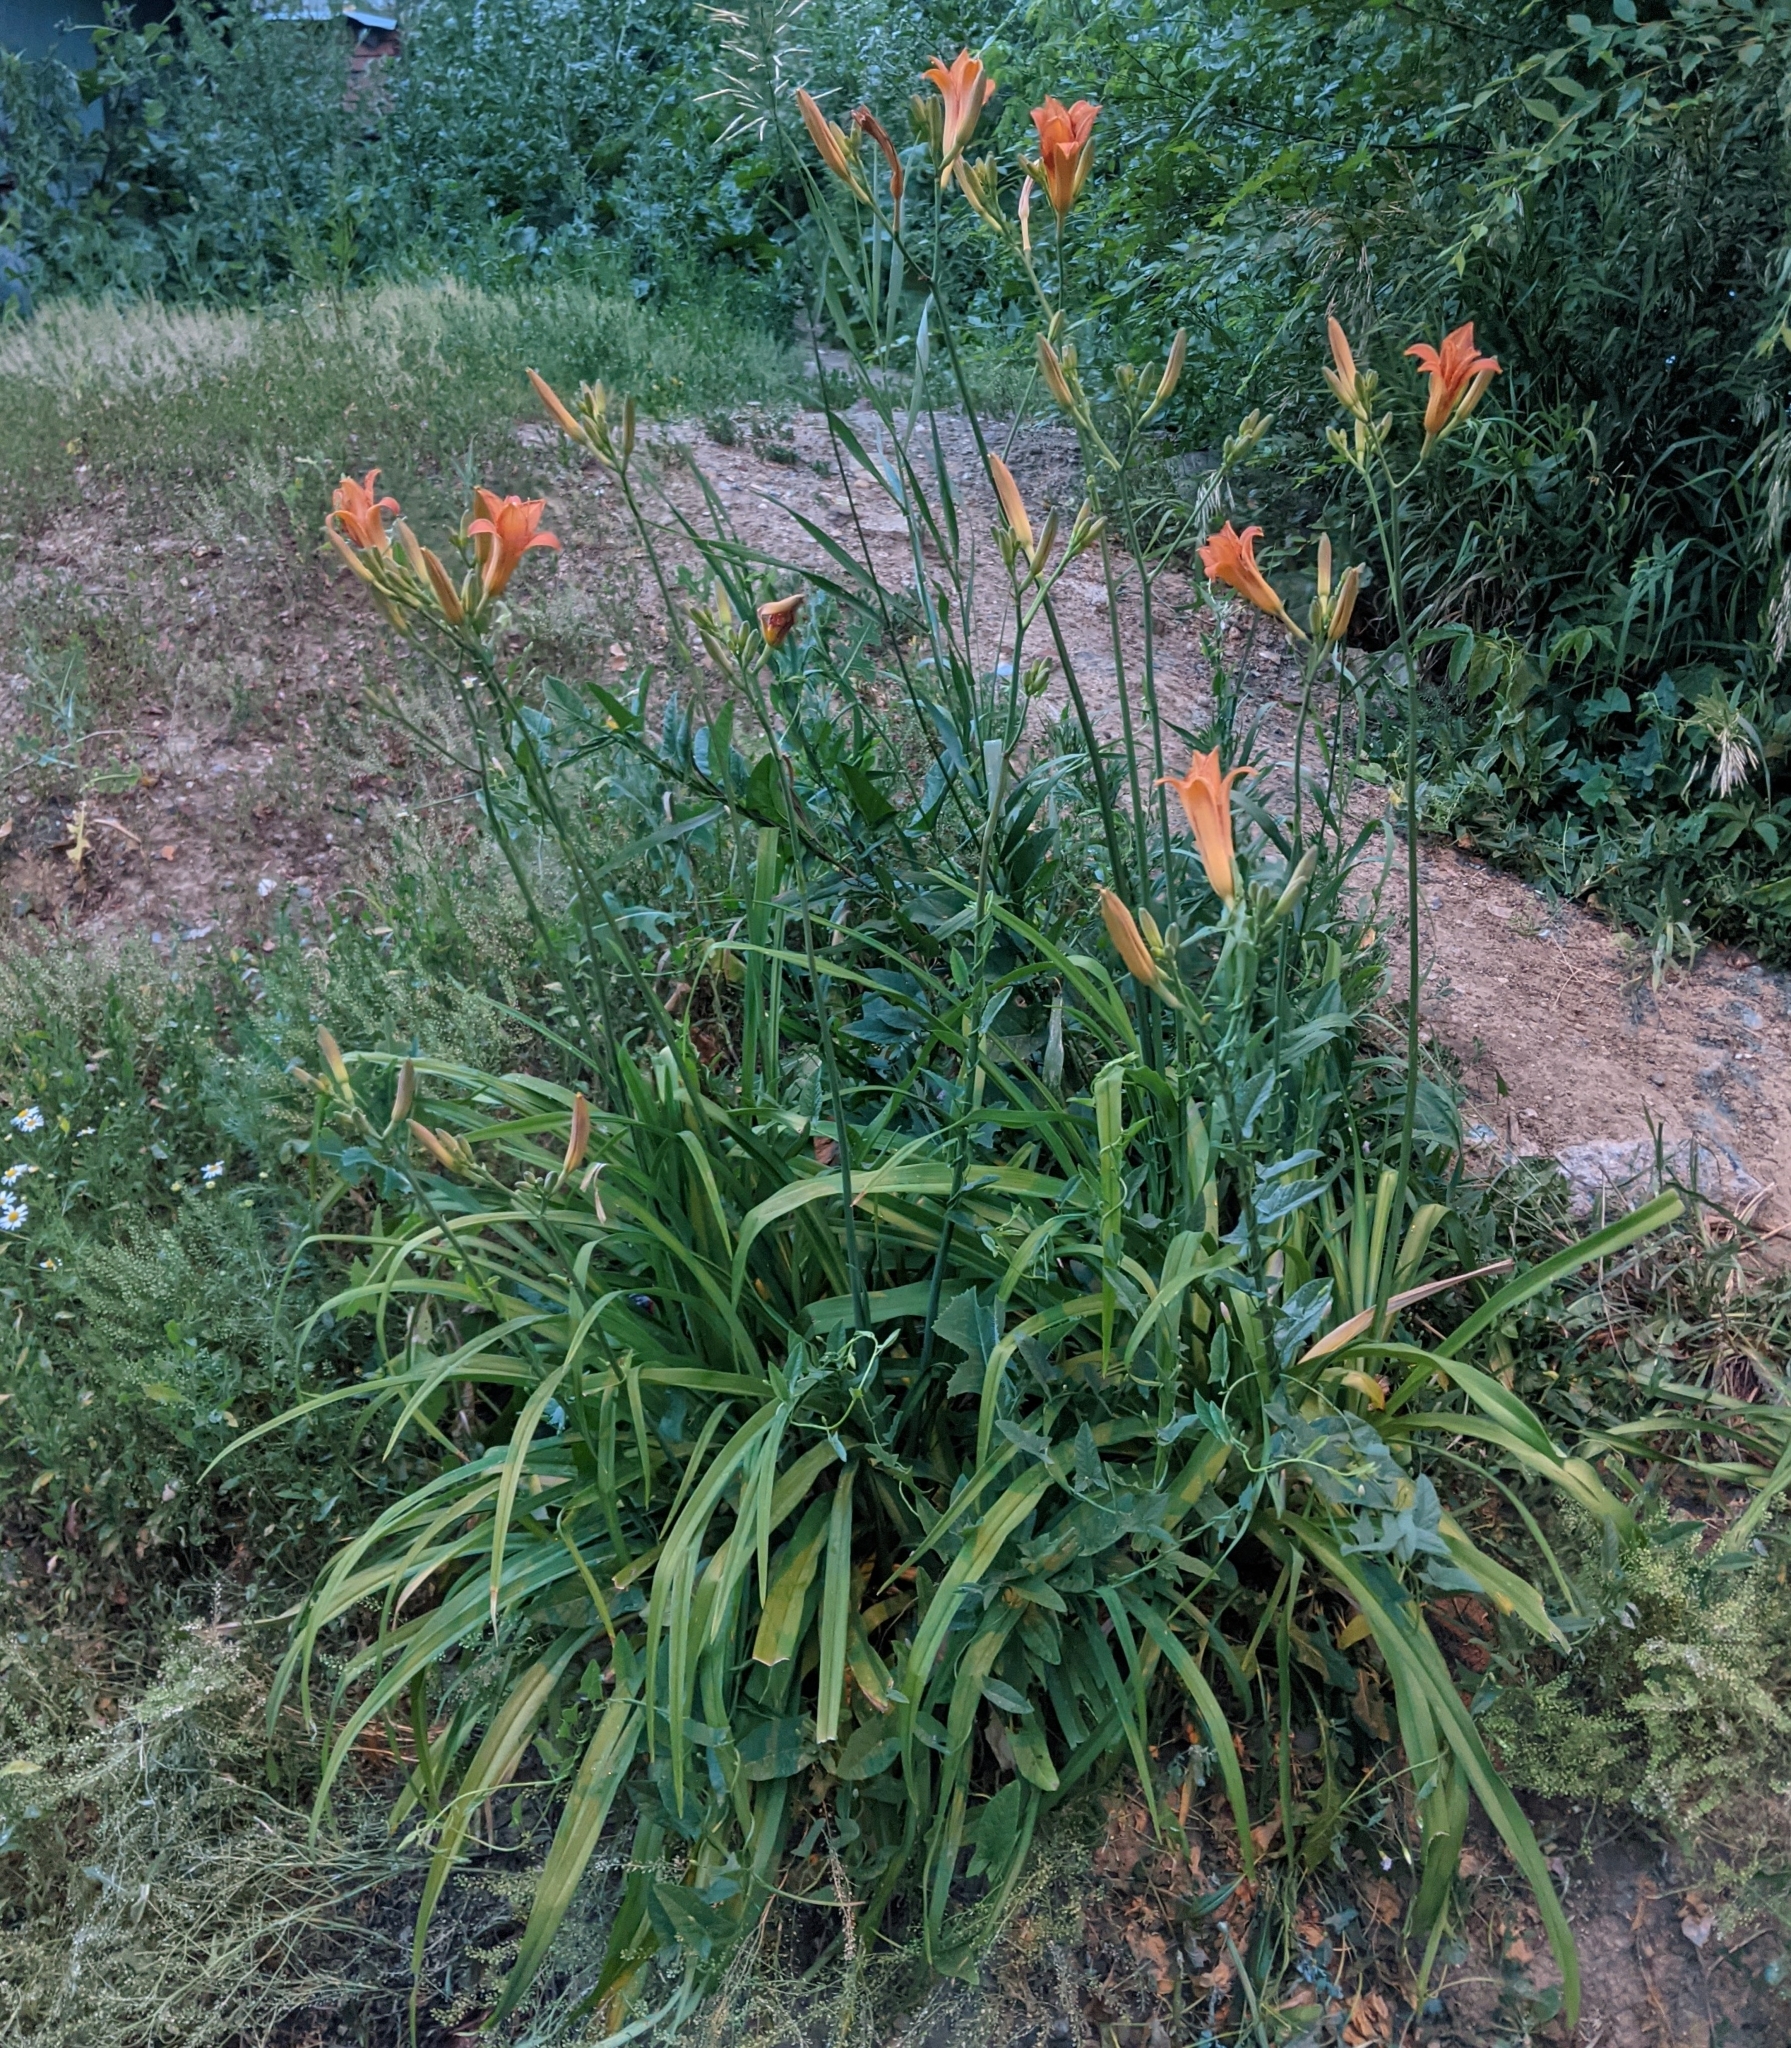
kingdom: Plantae
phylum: Tracheophyta
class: Liliopsida
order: Asparagales
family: Asphodelaceae
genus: Hemerocallis
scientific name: Hemerocallis fulva
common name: Orange day-lily
